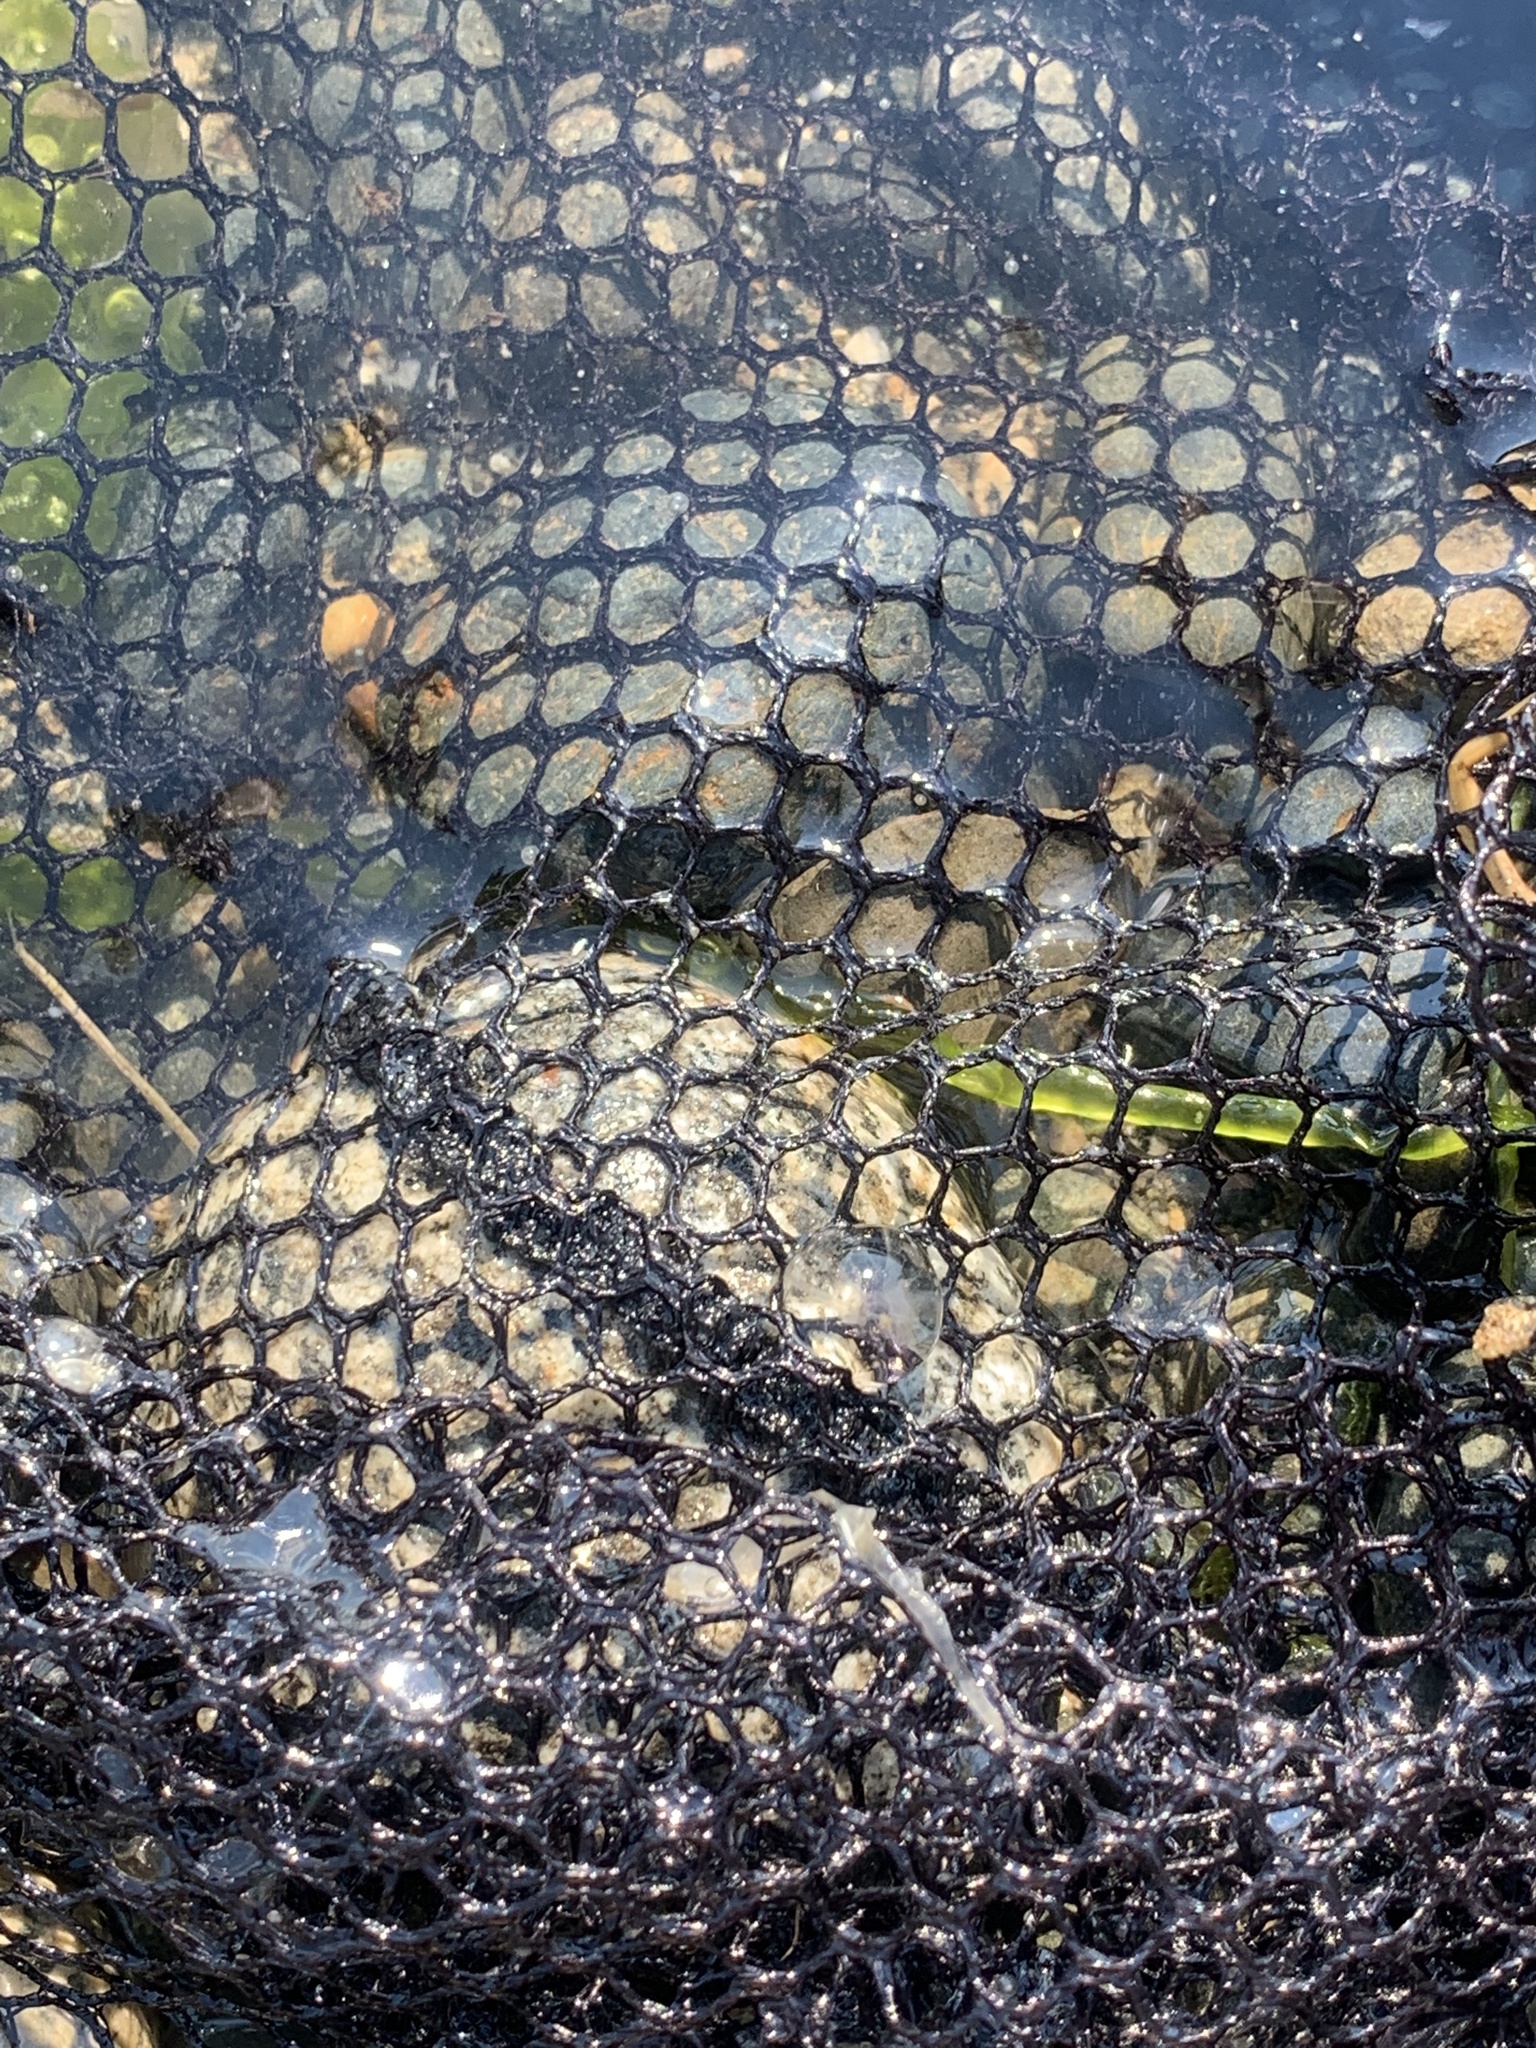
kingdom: Animalia
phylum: Ctenophora
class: Tentaculata
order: Cydippida
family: Pleurobrachiidae
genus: Pleurobrachia
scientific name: Pleurobrachia bachei
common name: Pacific sea gooseberry
